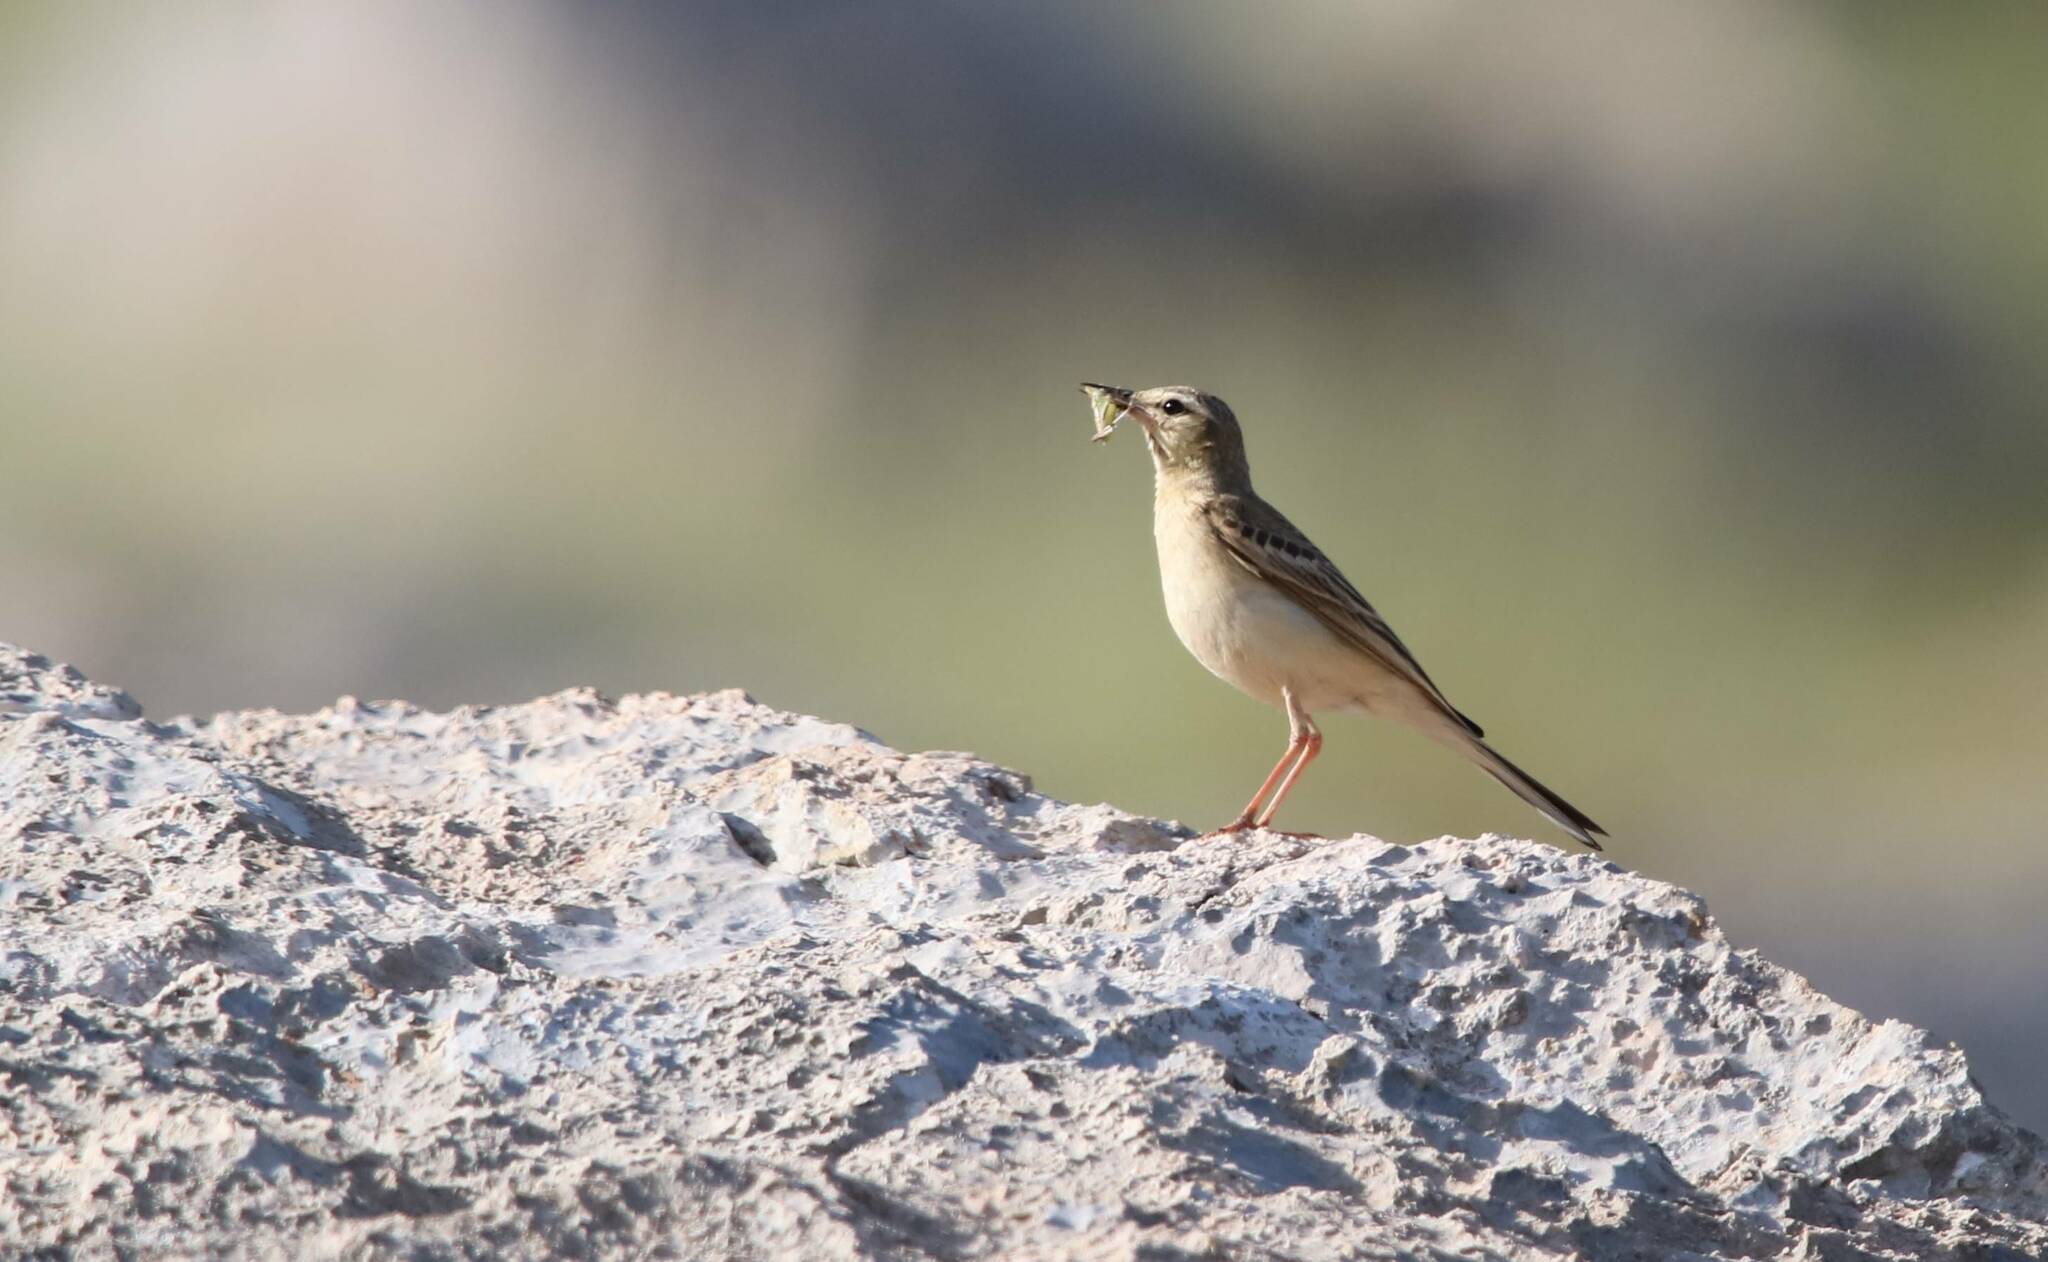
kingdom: Animalia
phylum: Chordata
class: Aves
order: Passeriformes
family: Motacillidae
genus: Anthus
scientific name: Anthus campestris
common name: Tawny pipit
